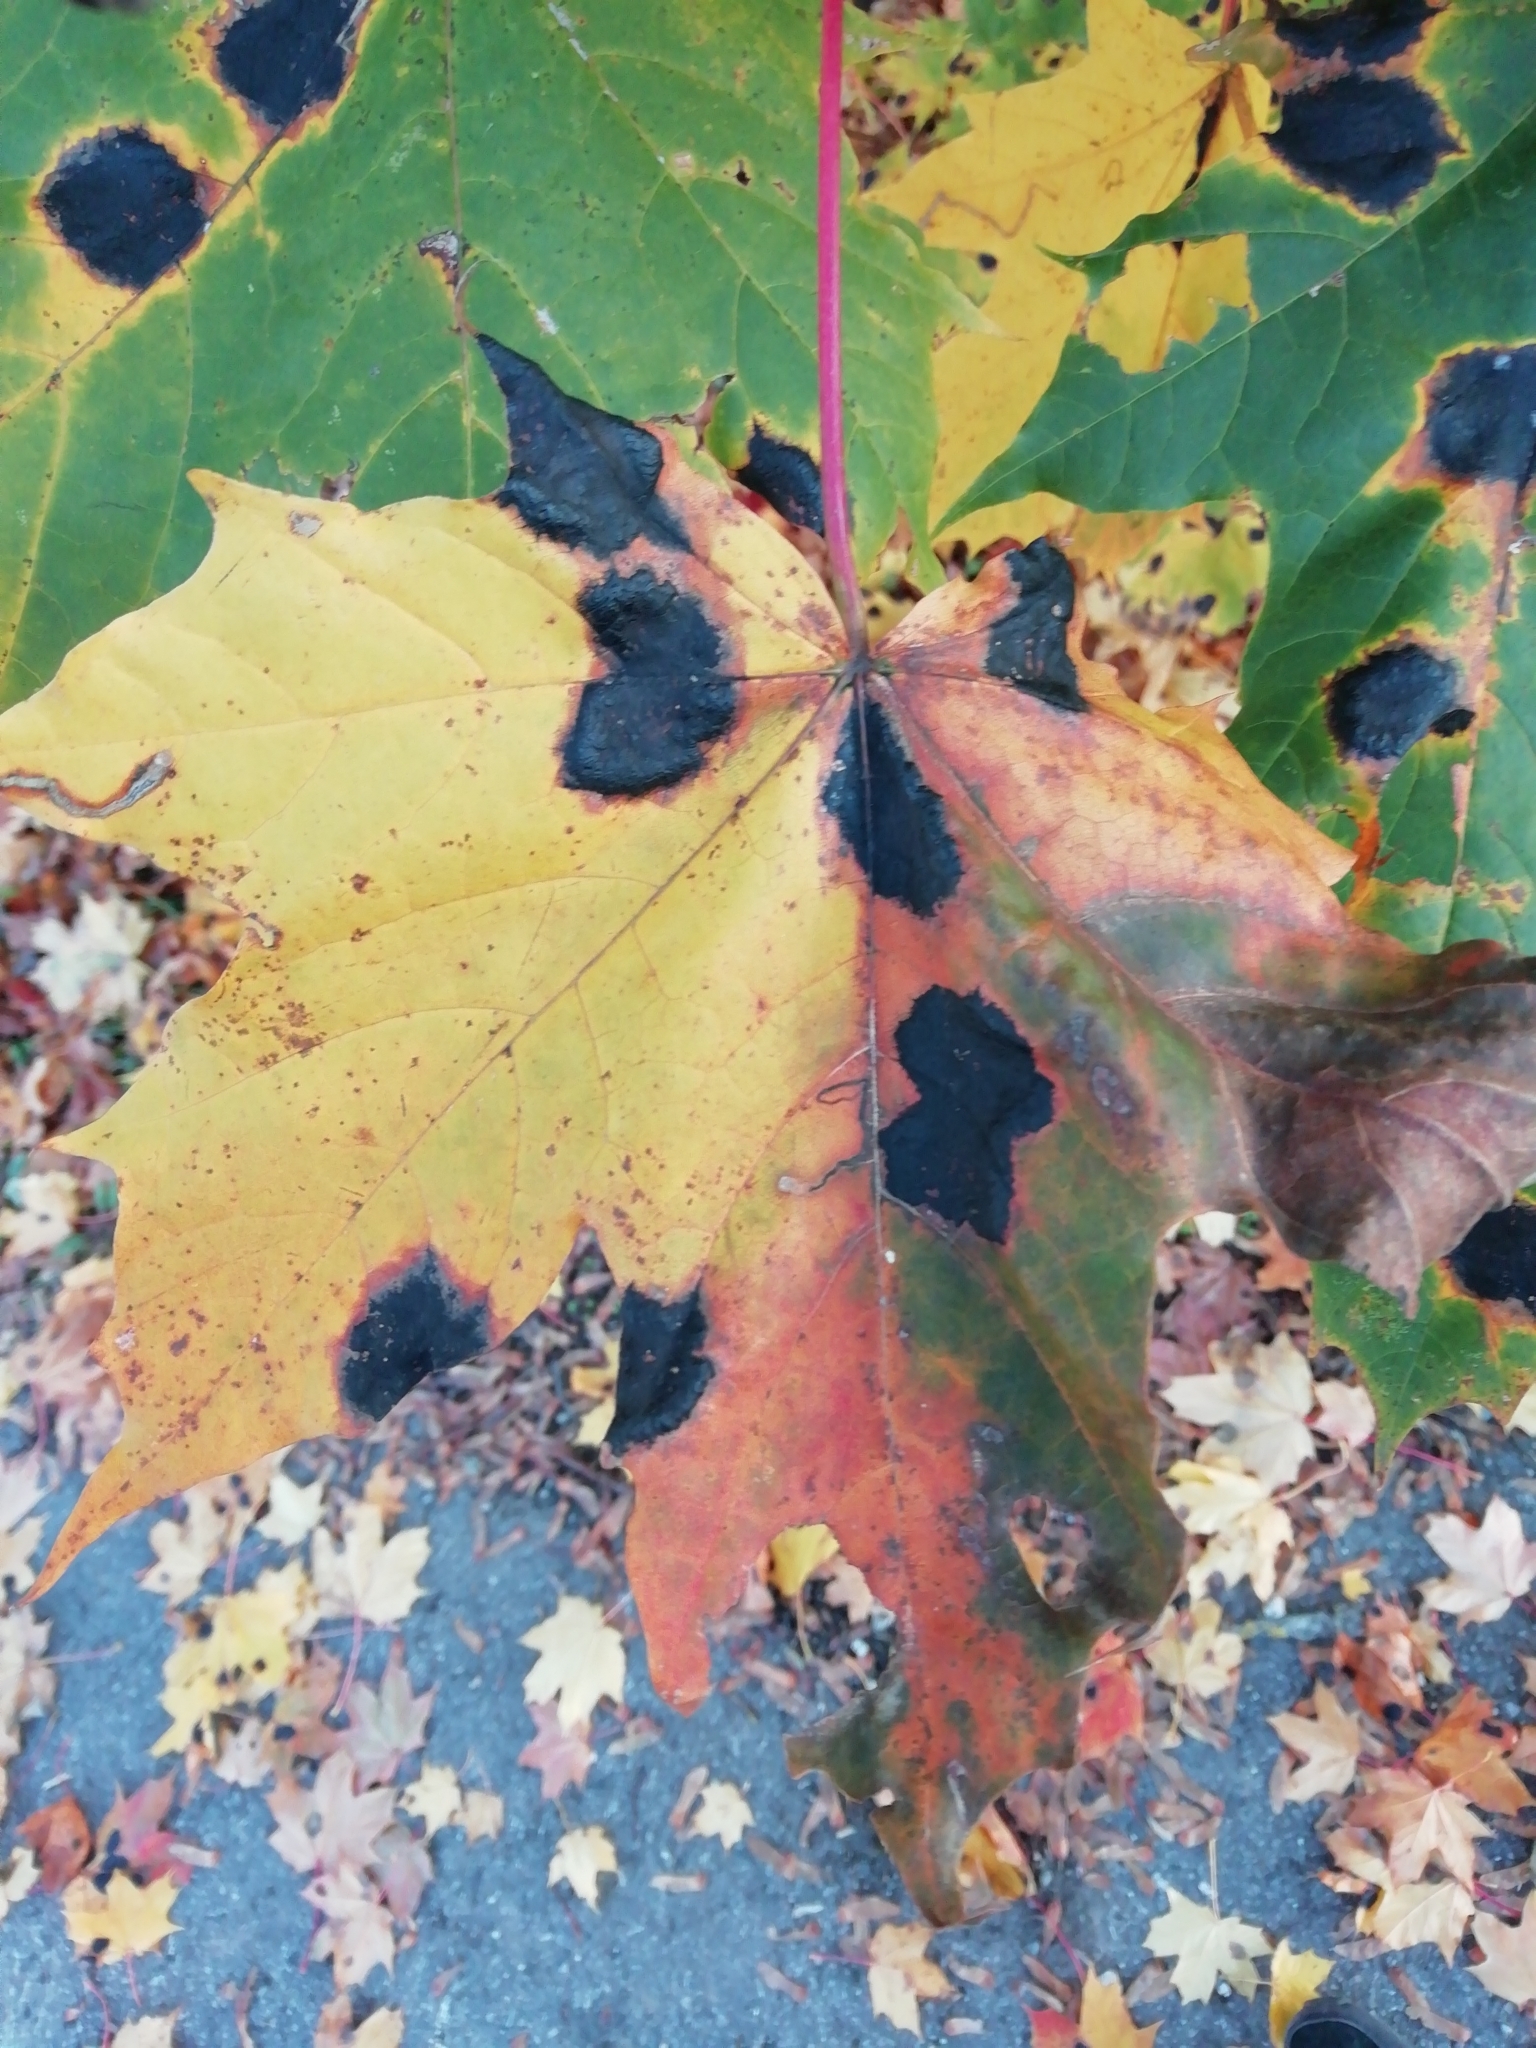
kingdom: Fungi
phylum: Ascomycota
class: Leotiomycetes
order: Rhytismatales
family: Rhytismataceae
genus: Rhytisma
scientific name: Rhytisma acerinum
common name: European tar spot
